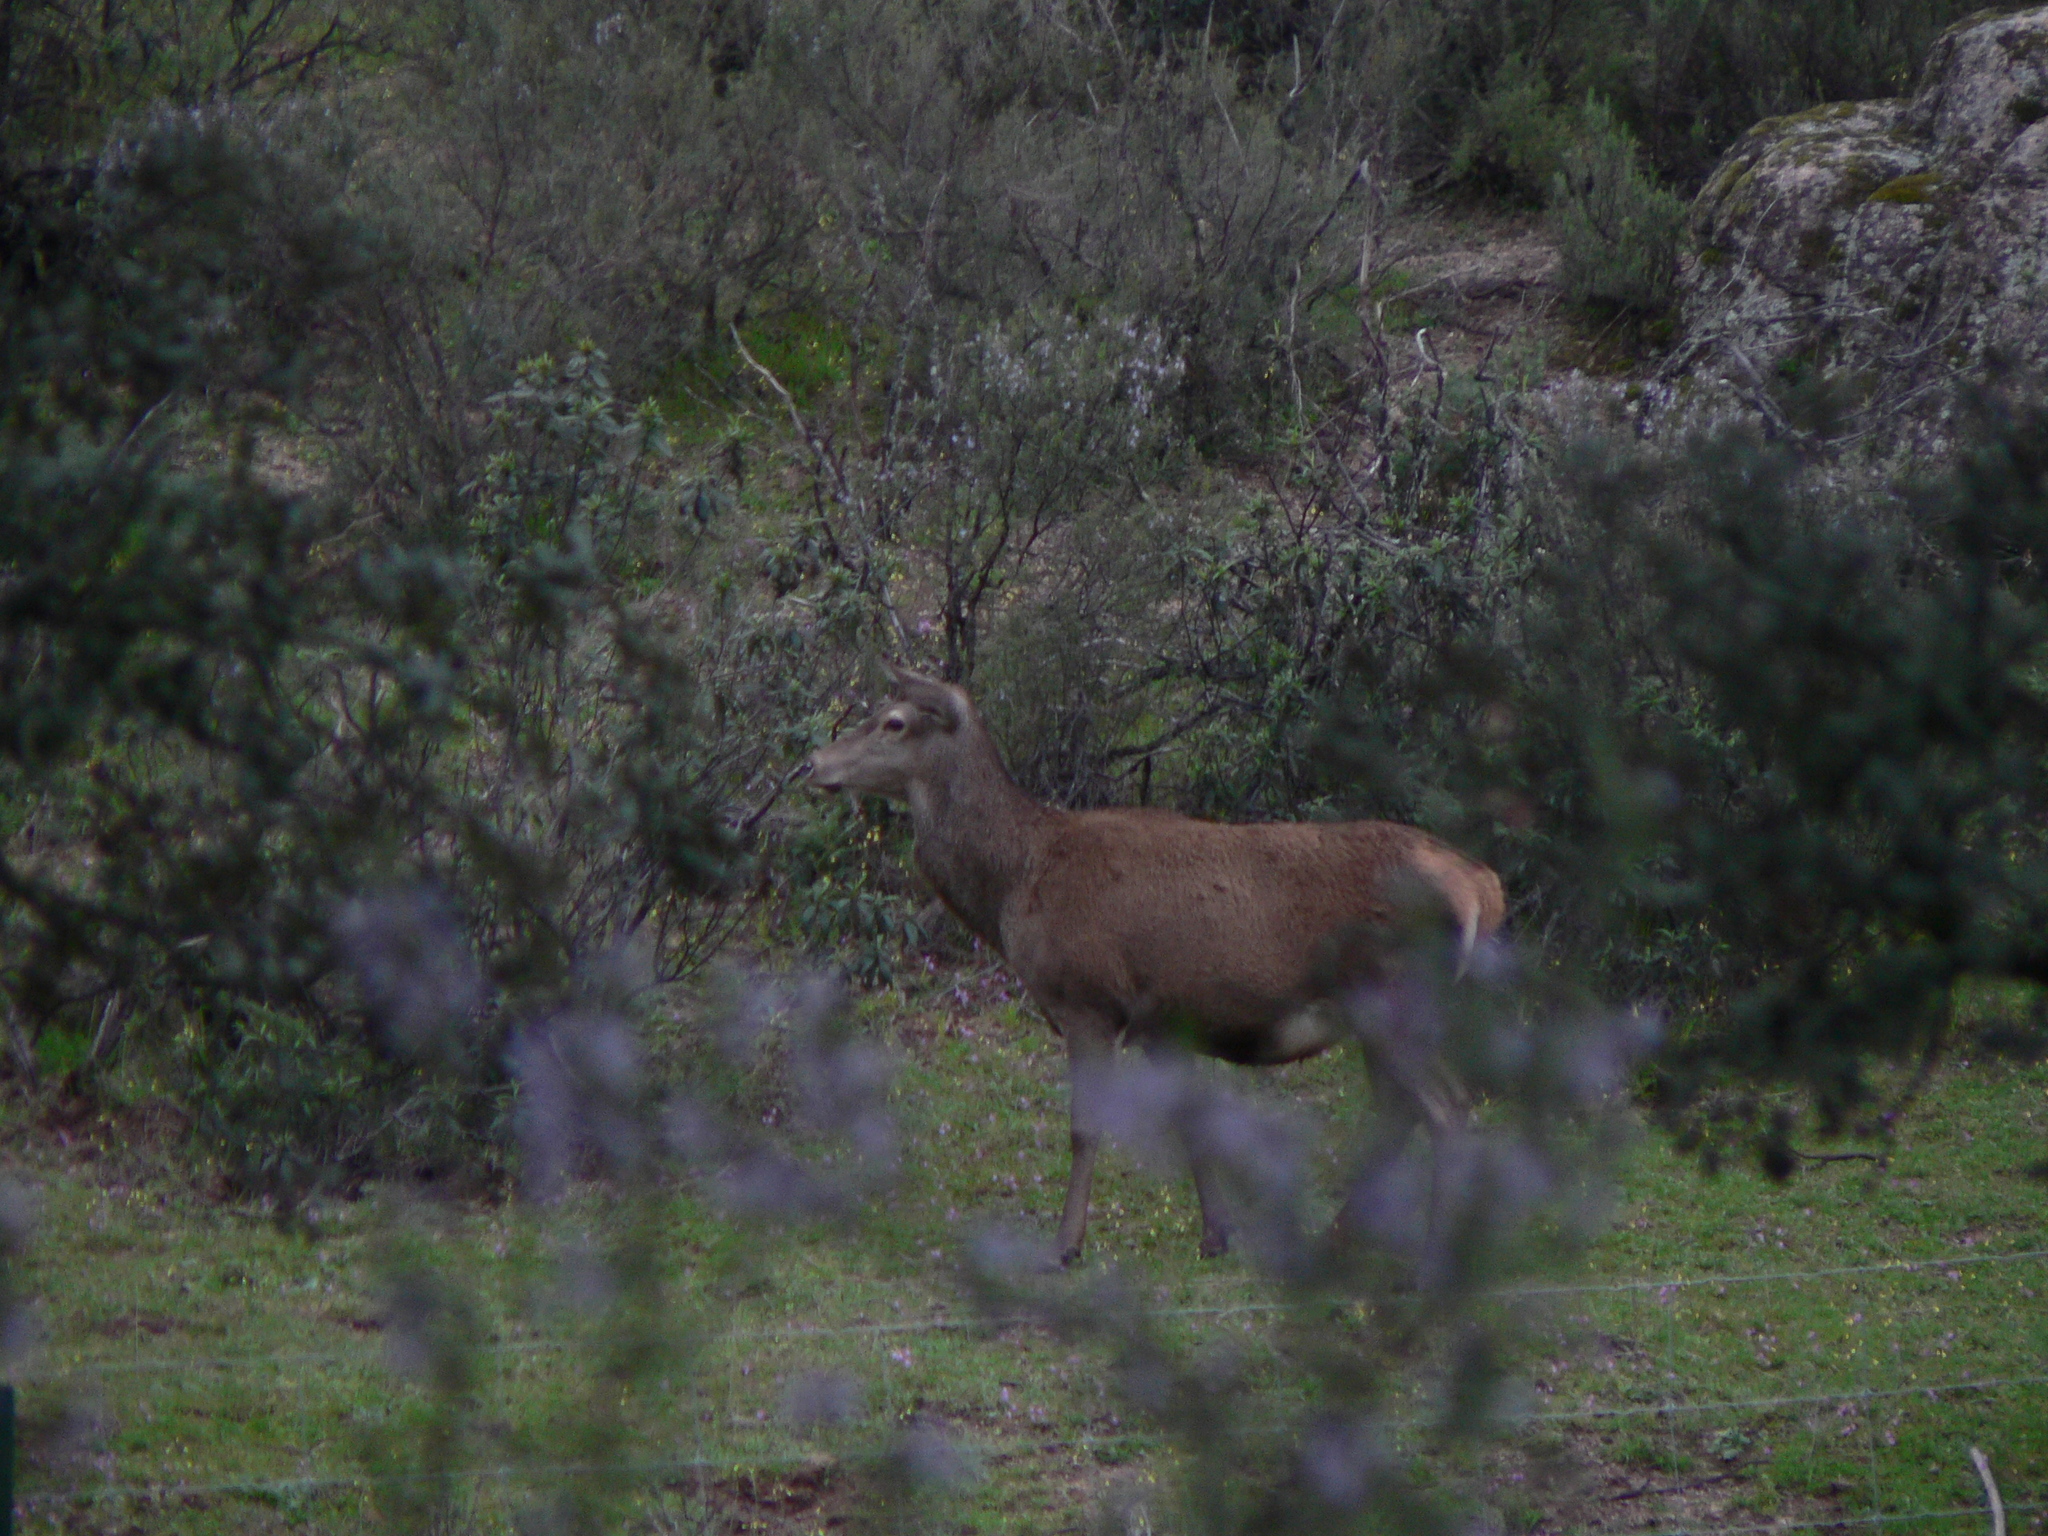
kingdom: Animalia
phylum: Chordata
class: Mammalia
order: Artiodactyla
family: Cervidae
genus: Cervus
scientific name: Cervus elaphus
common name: Red deer
